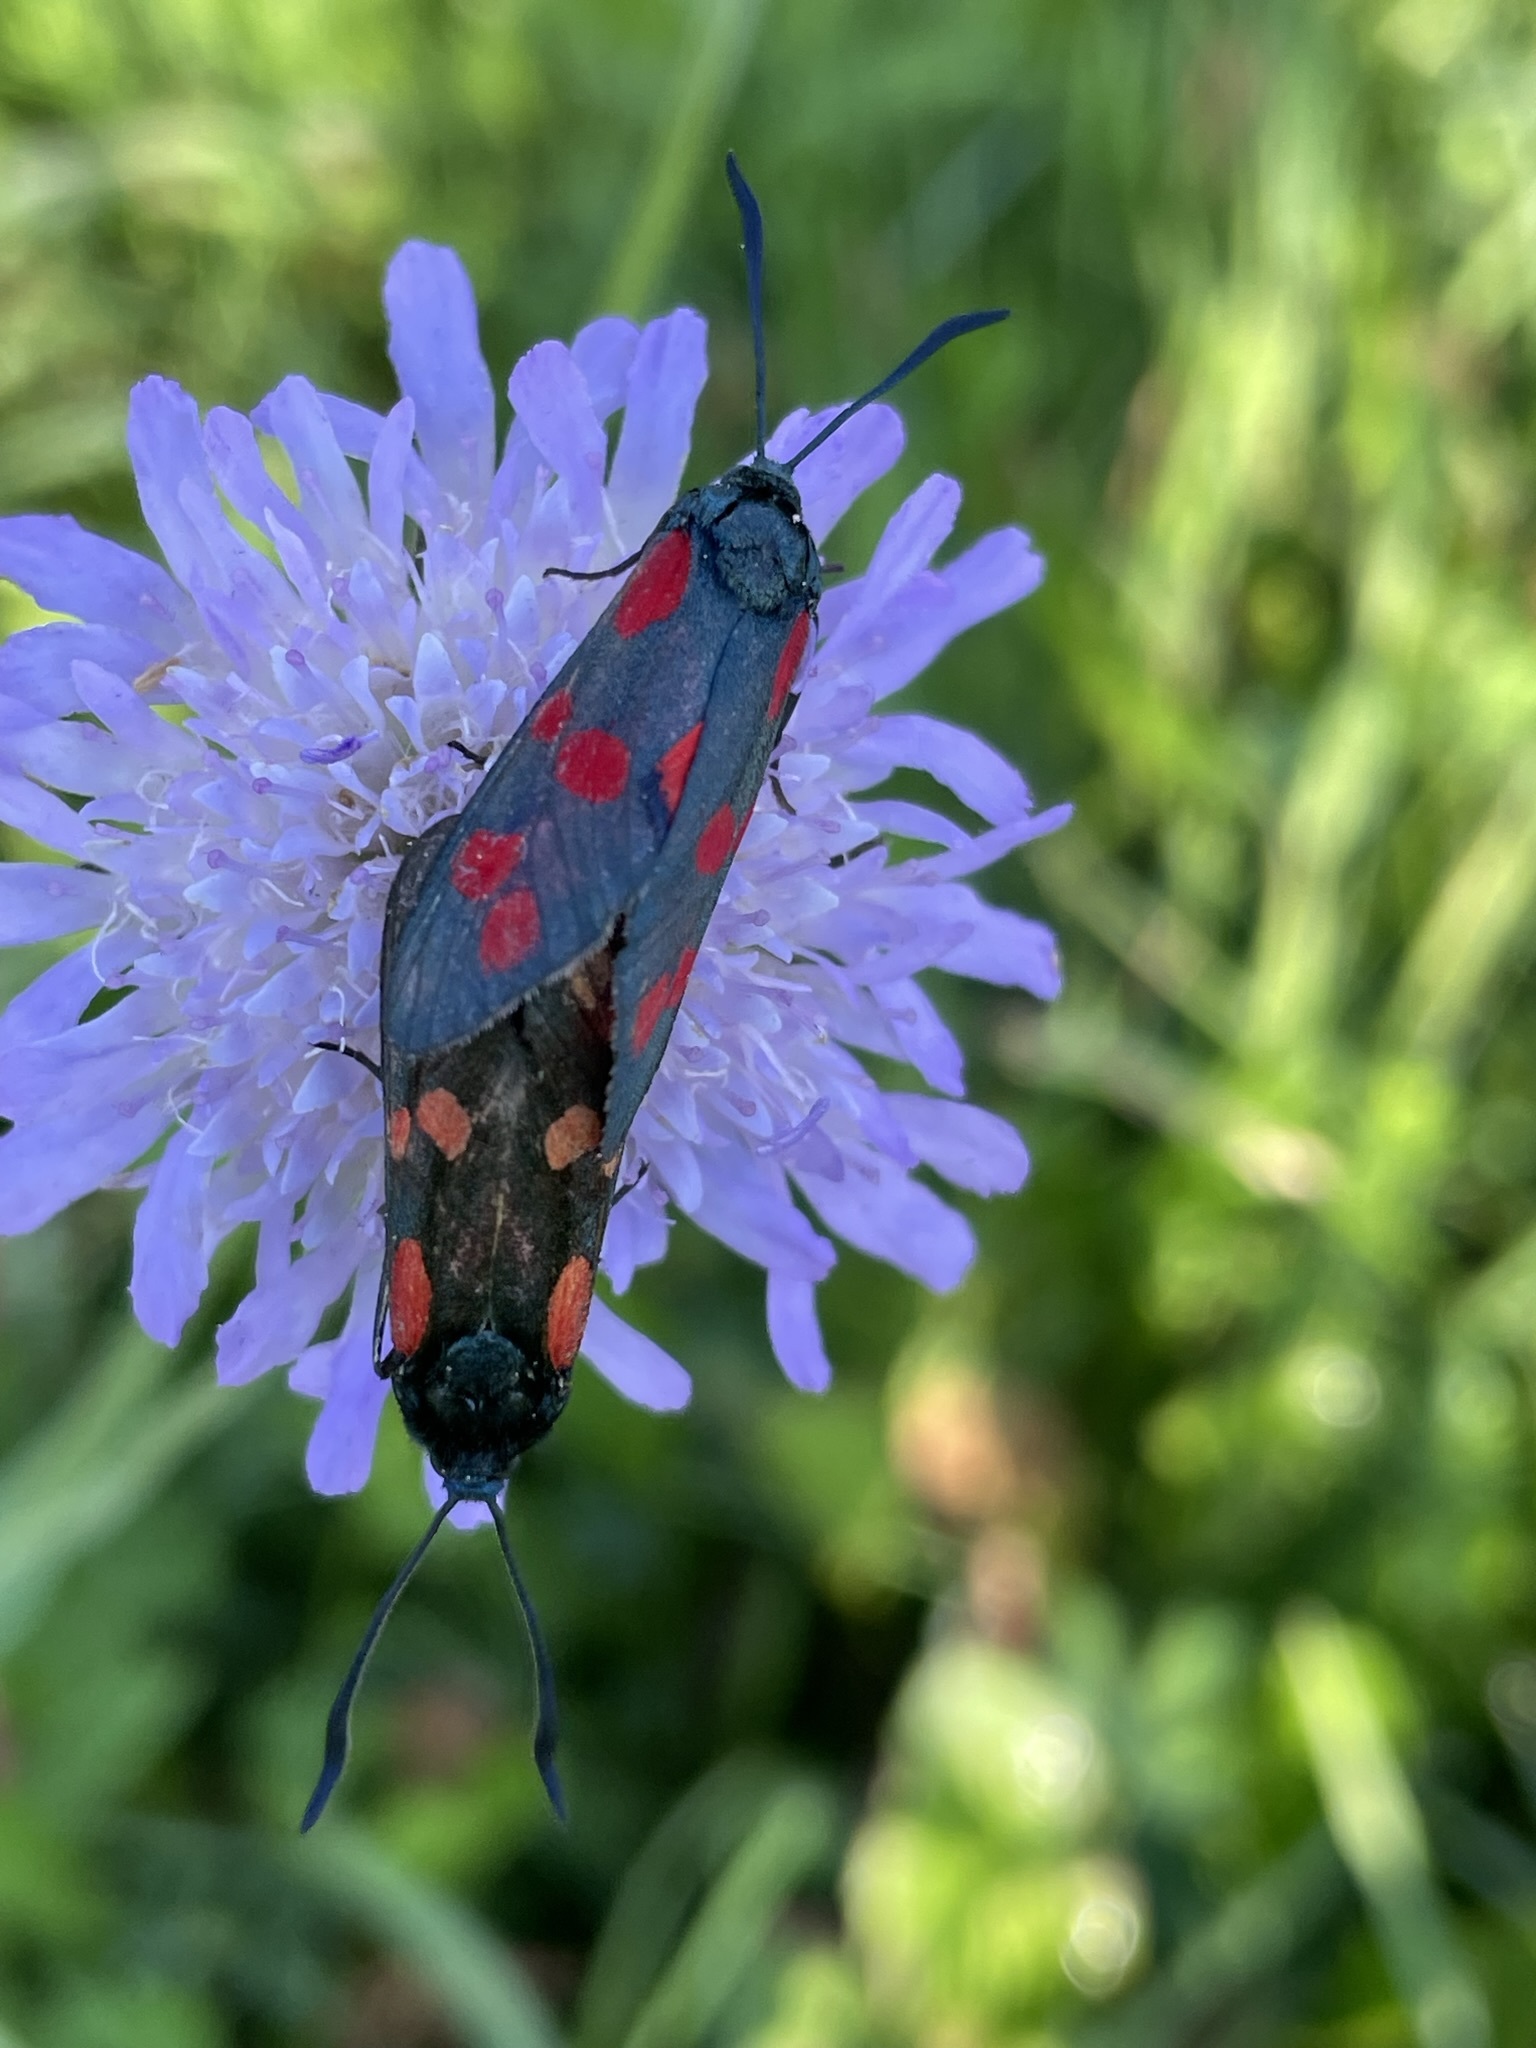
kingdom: Animalia
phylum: Arthropoda
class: Insecta
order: Lepidoptera
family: Zygaenidae
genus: Zygaena
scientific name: Zygaena filipendulae
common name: Six-spot burnet
